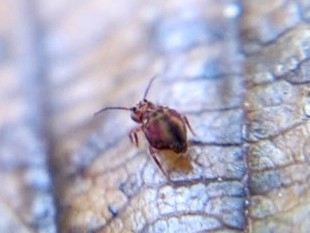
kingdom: Animalia
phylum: Arthropoda
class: Collembola
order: Symphypleona
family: Dicyrtomidae
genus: Dicyrtomina
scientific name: Dicyrtomina minuta
